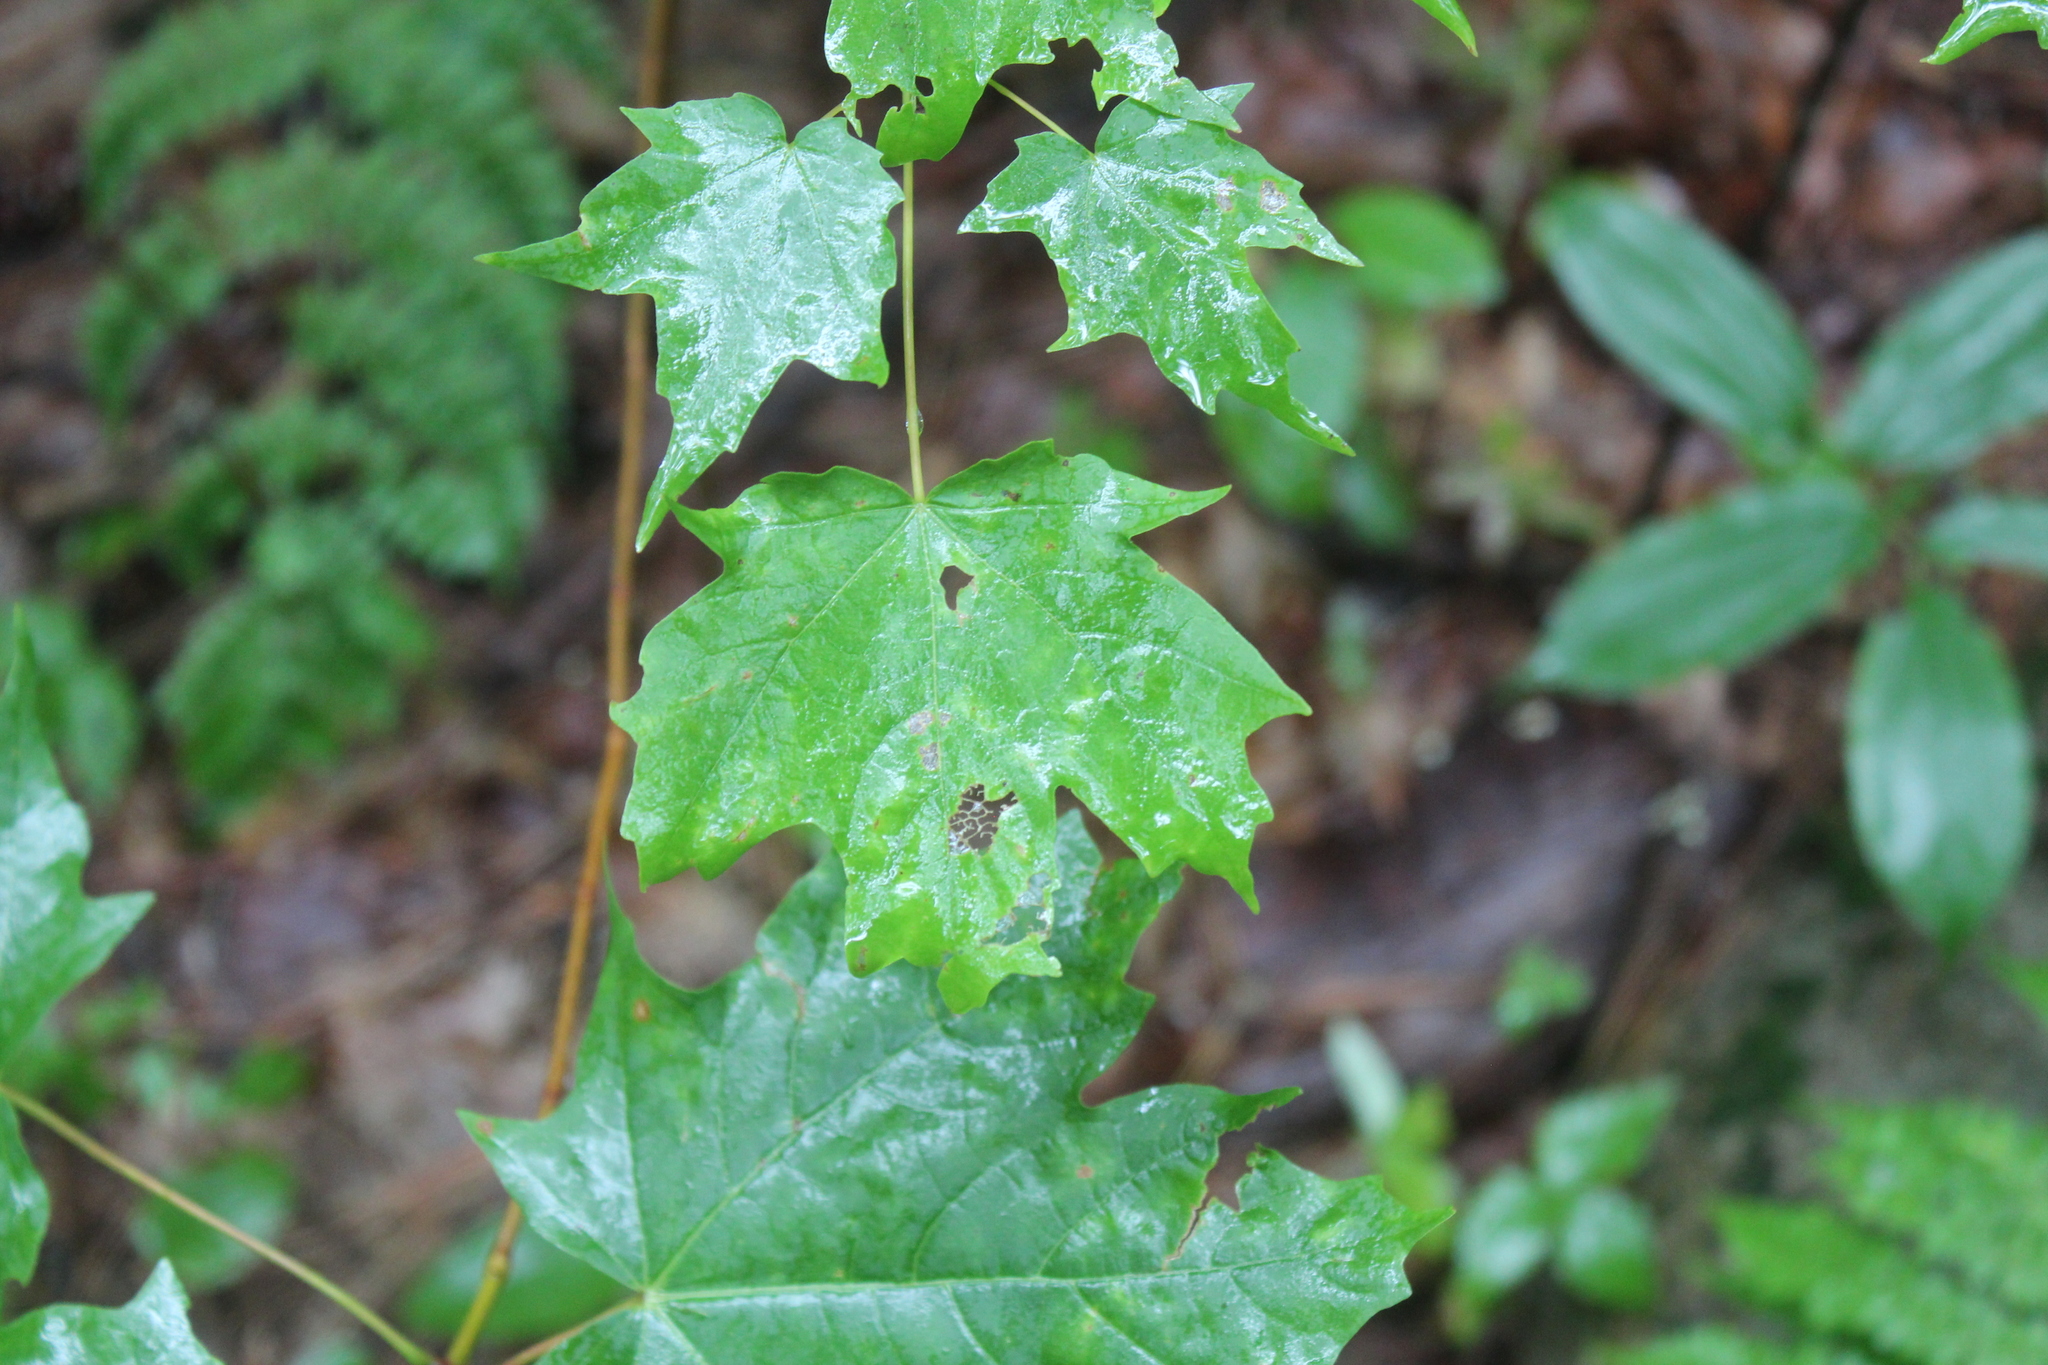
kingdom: Plantae
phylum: Tracheophyta
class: Magnoliopsida
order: Sapindales
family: Sapindaceae
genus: Acer
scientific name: Acer saccharum
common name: Sugar maple
